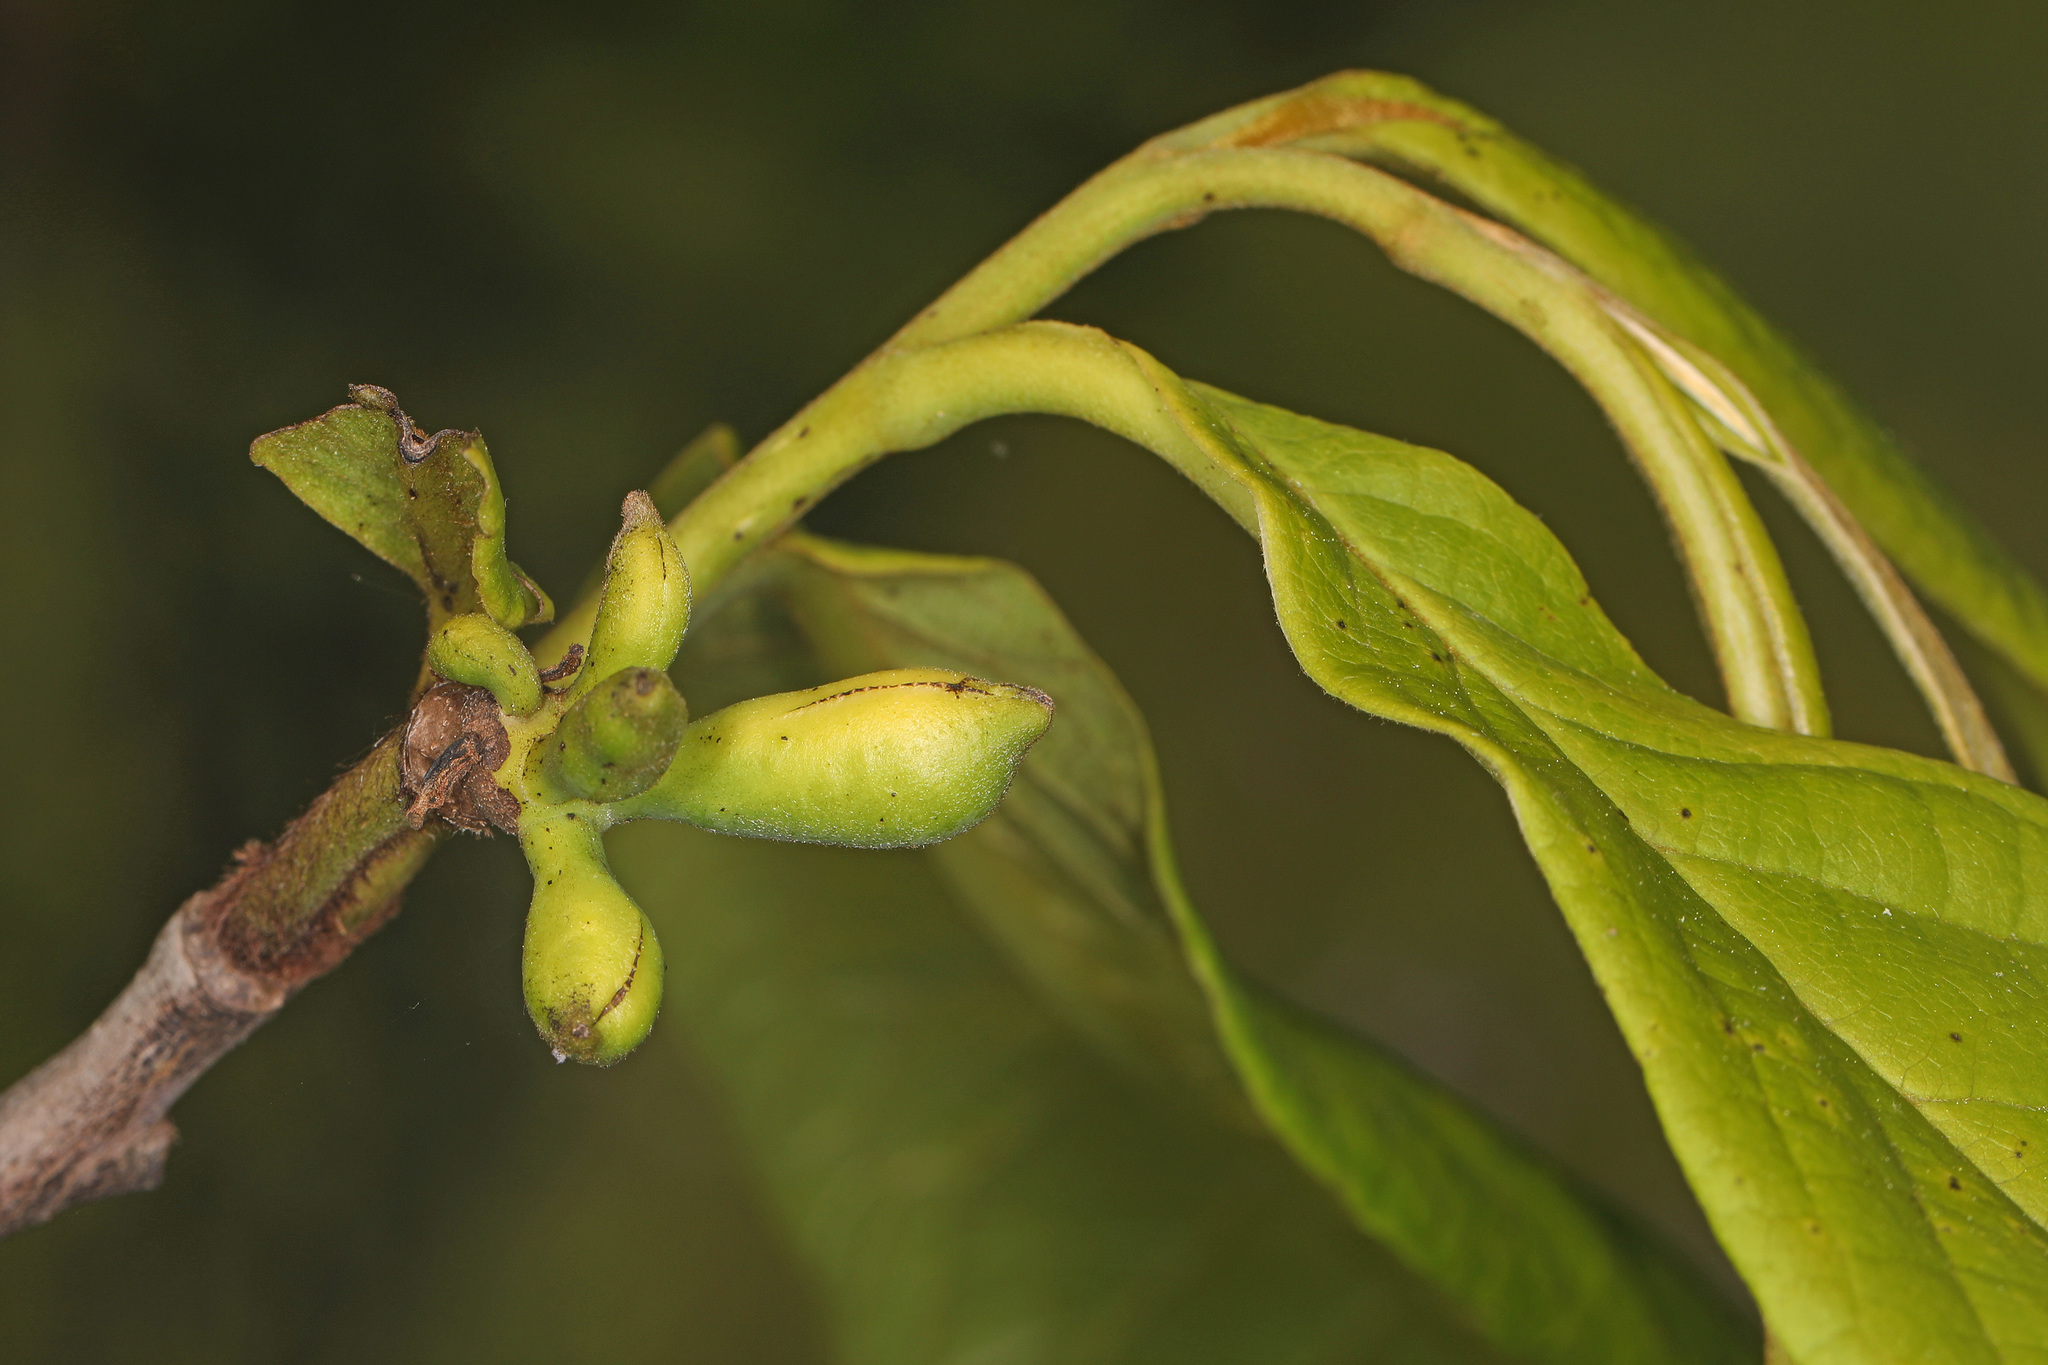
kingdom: Plantae
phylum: Tracheophyta
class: Magnoliopsida
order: Magnoliales
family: Annonaceae
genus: Asimina
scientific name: Asimina triloba
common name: Dog-banana
